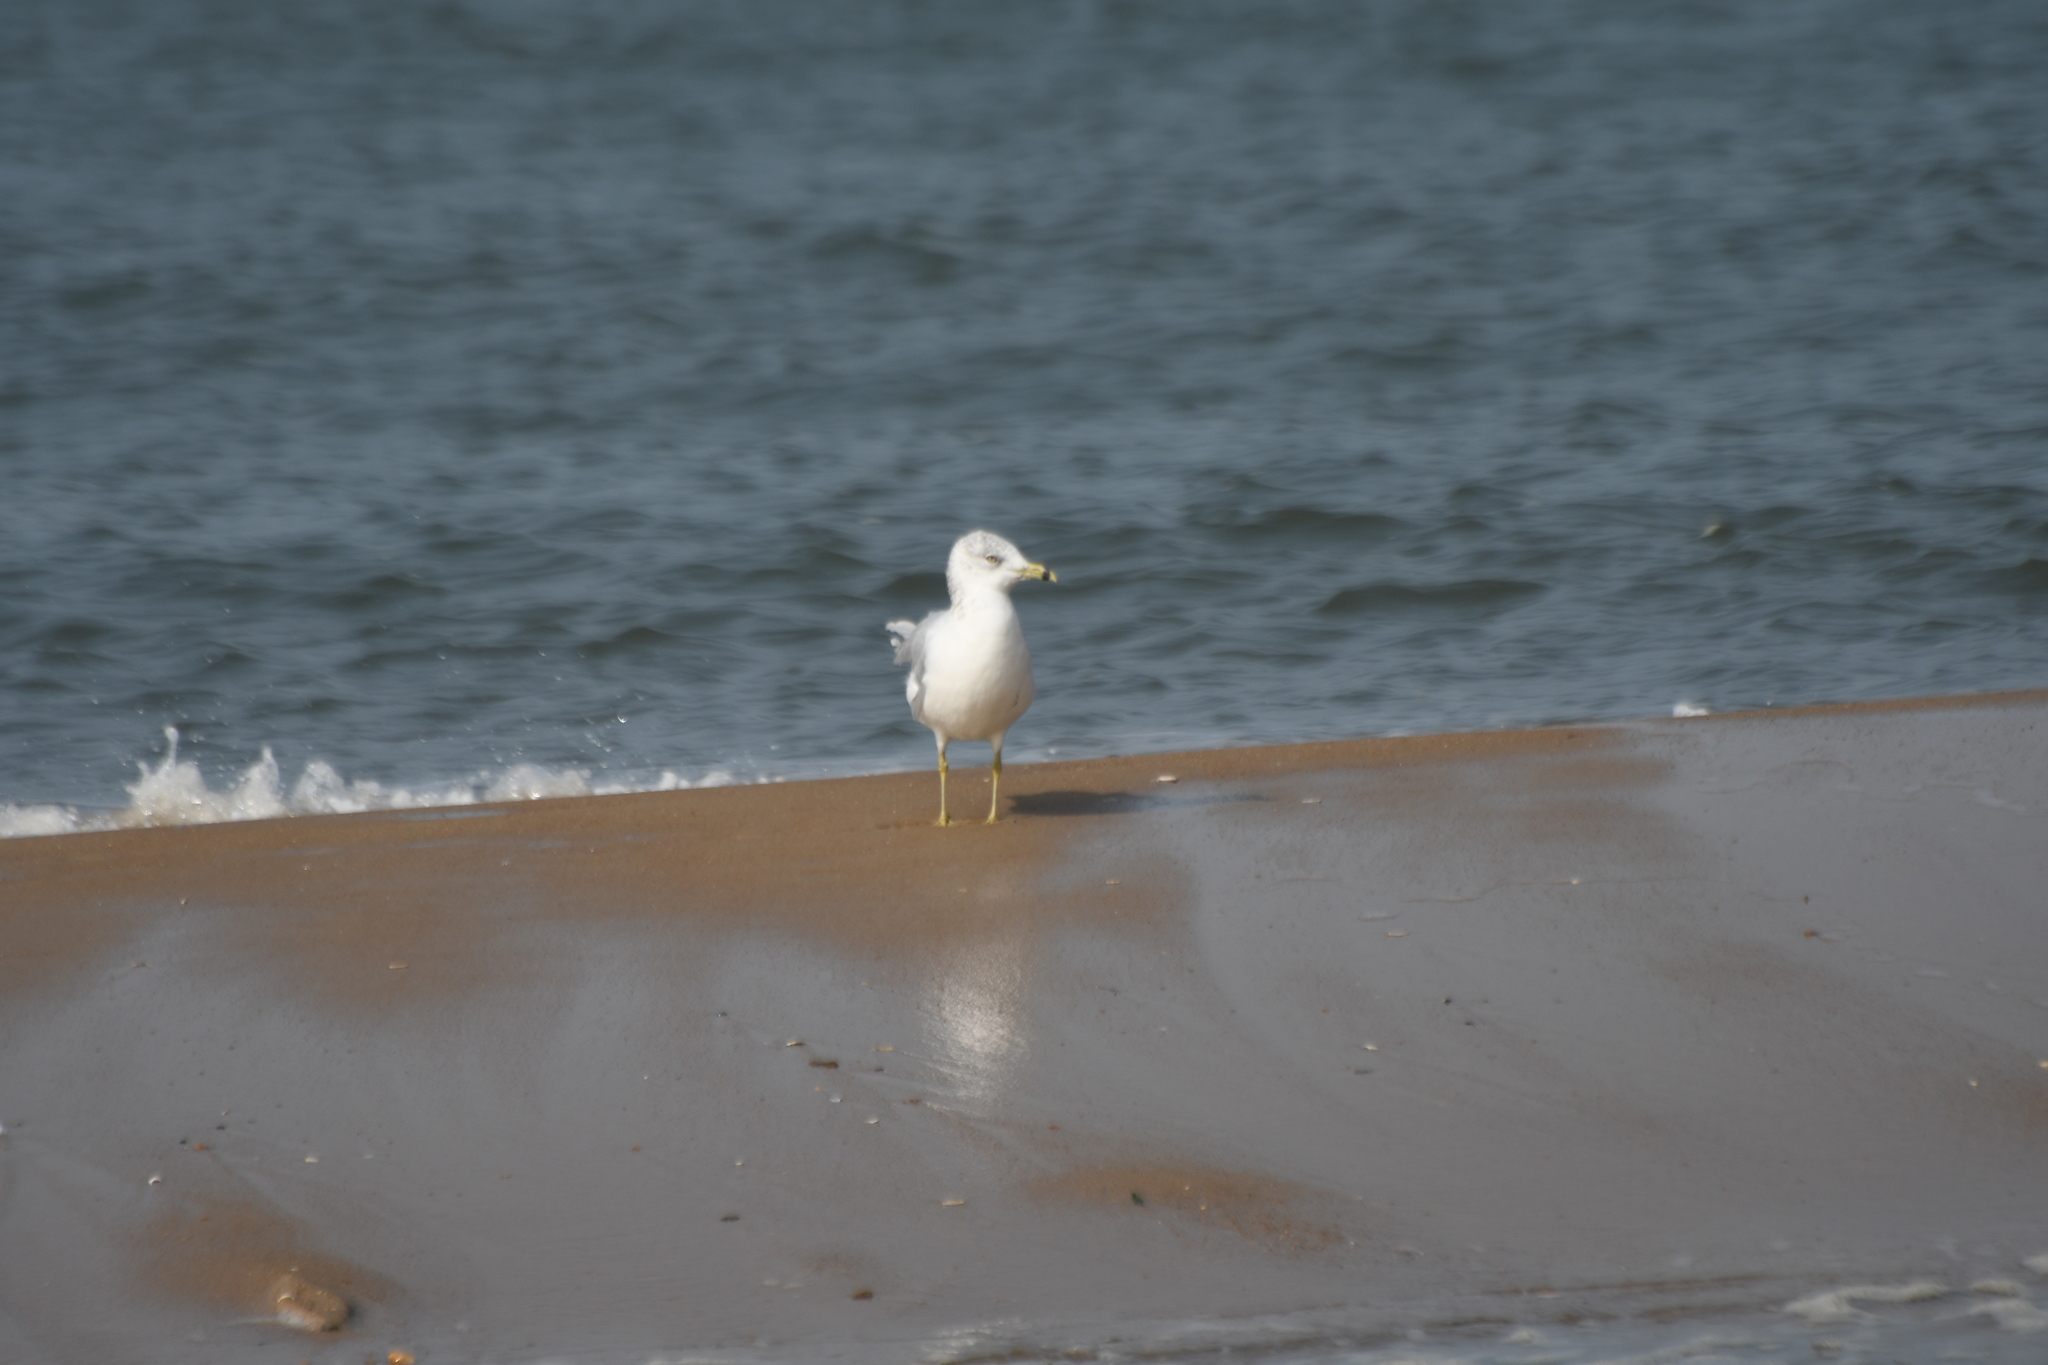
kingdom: Animalia
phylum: Chordata
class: Aves
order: Charadriiformes
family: Laridae
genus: Larus
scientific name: Larus delawarensis
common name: Ring-billed gull
